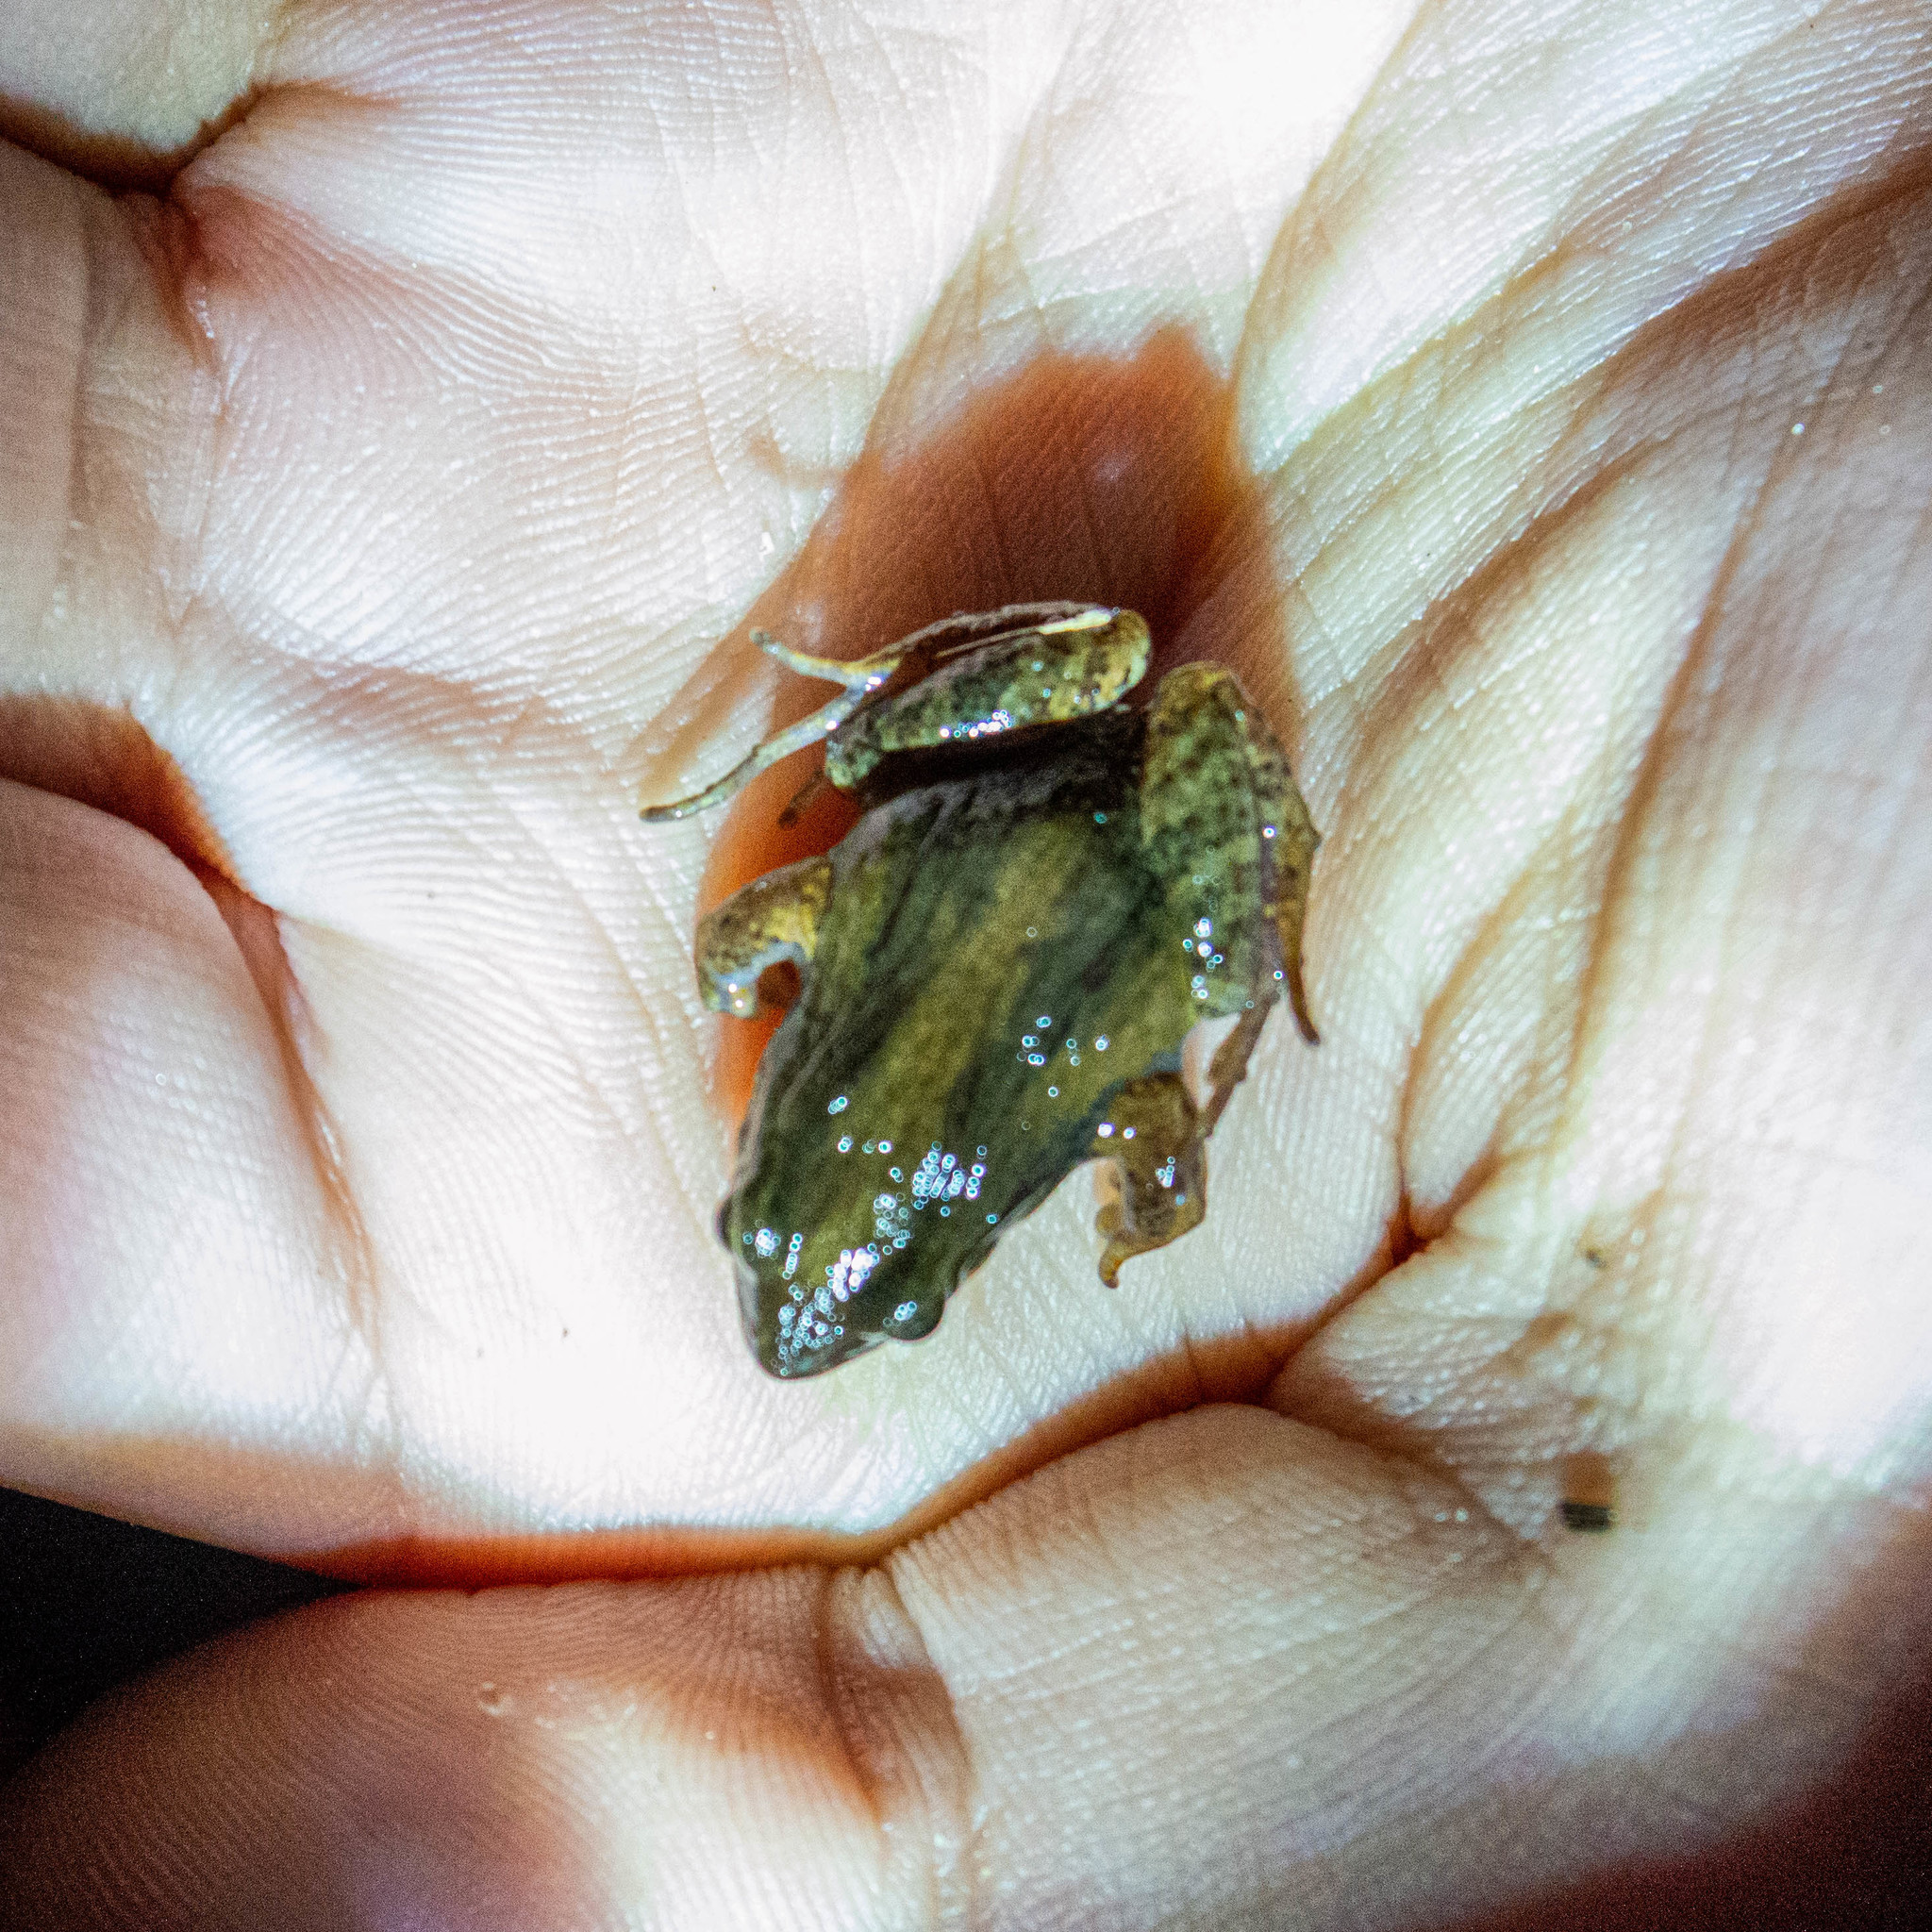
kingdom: Animalia
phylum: Chordata
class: Amphibia
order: Anura
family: Leptodactylidae
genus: Physalaemus
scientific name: Physalaemus henselii
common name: Hensel's dwarf frog
